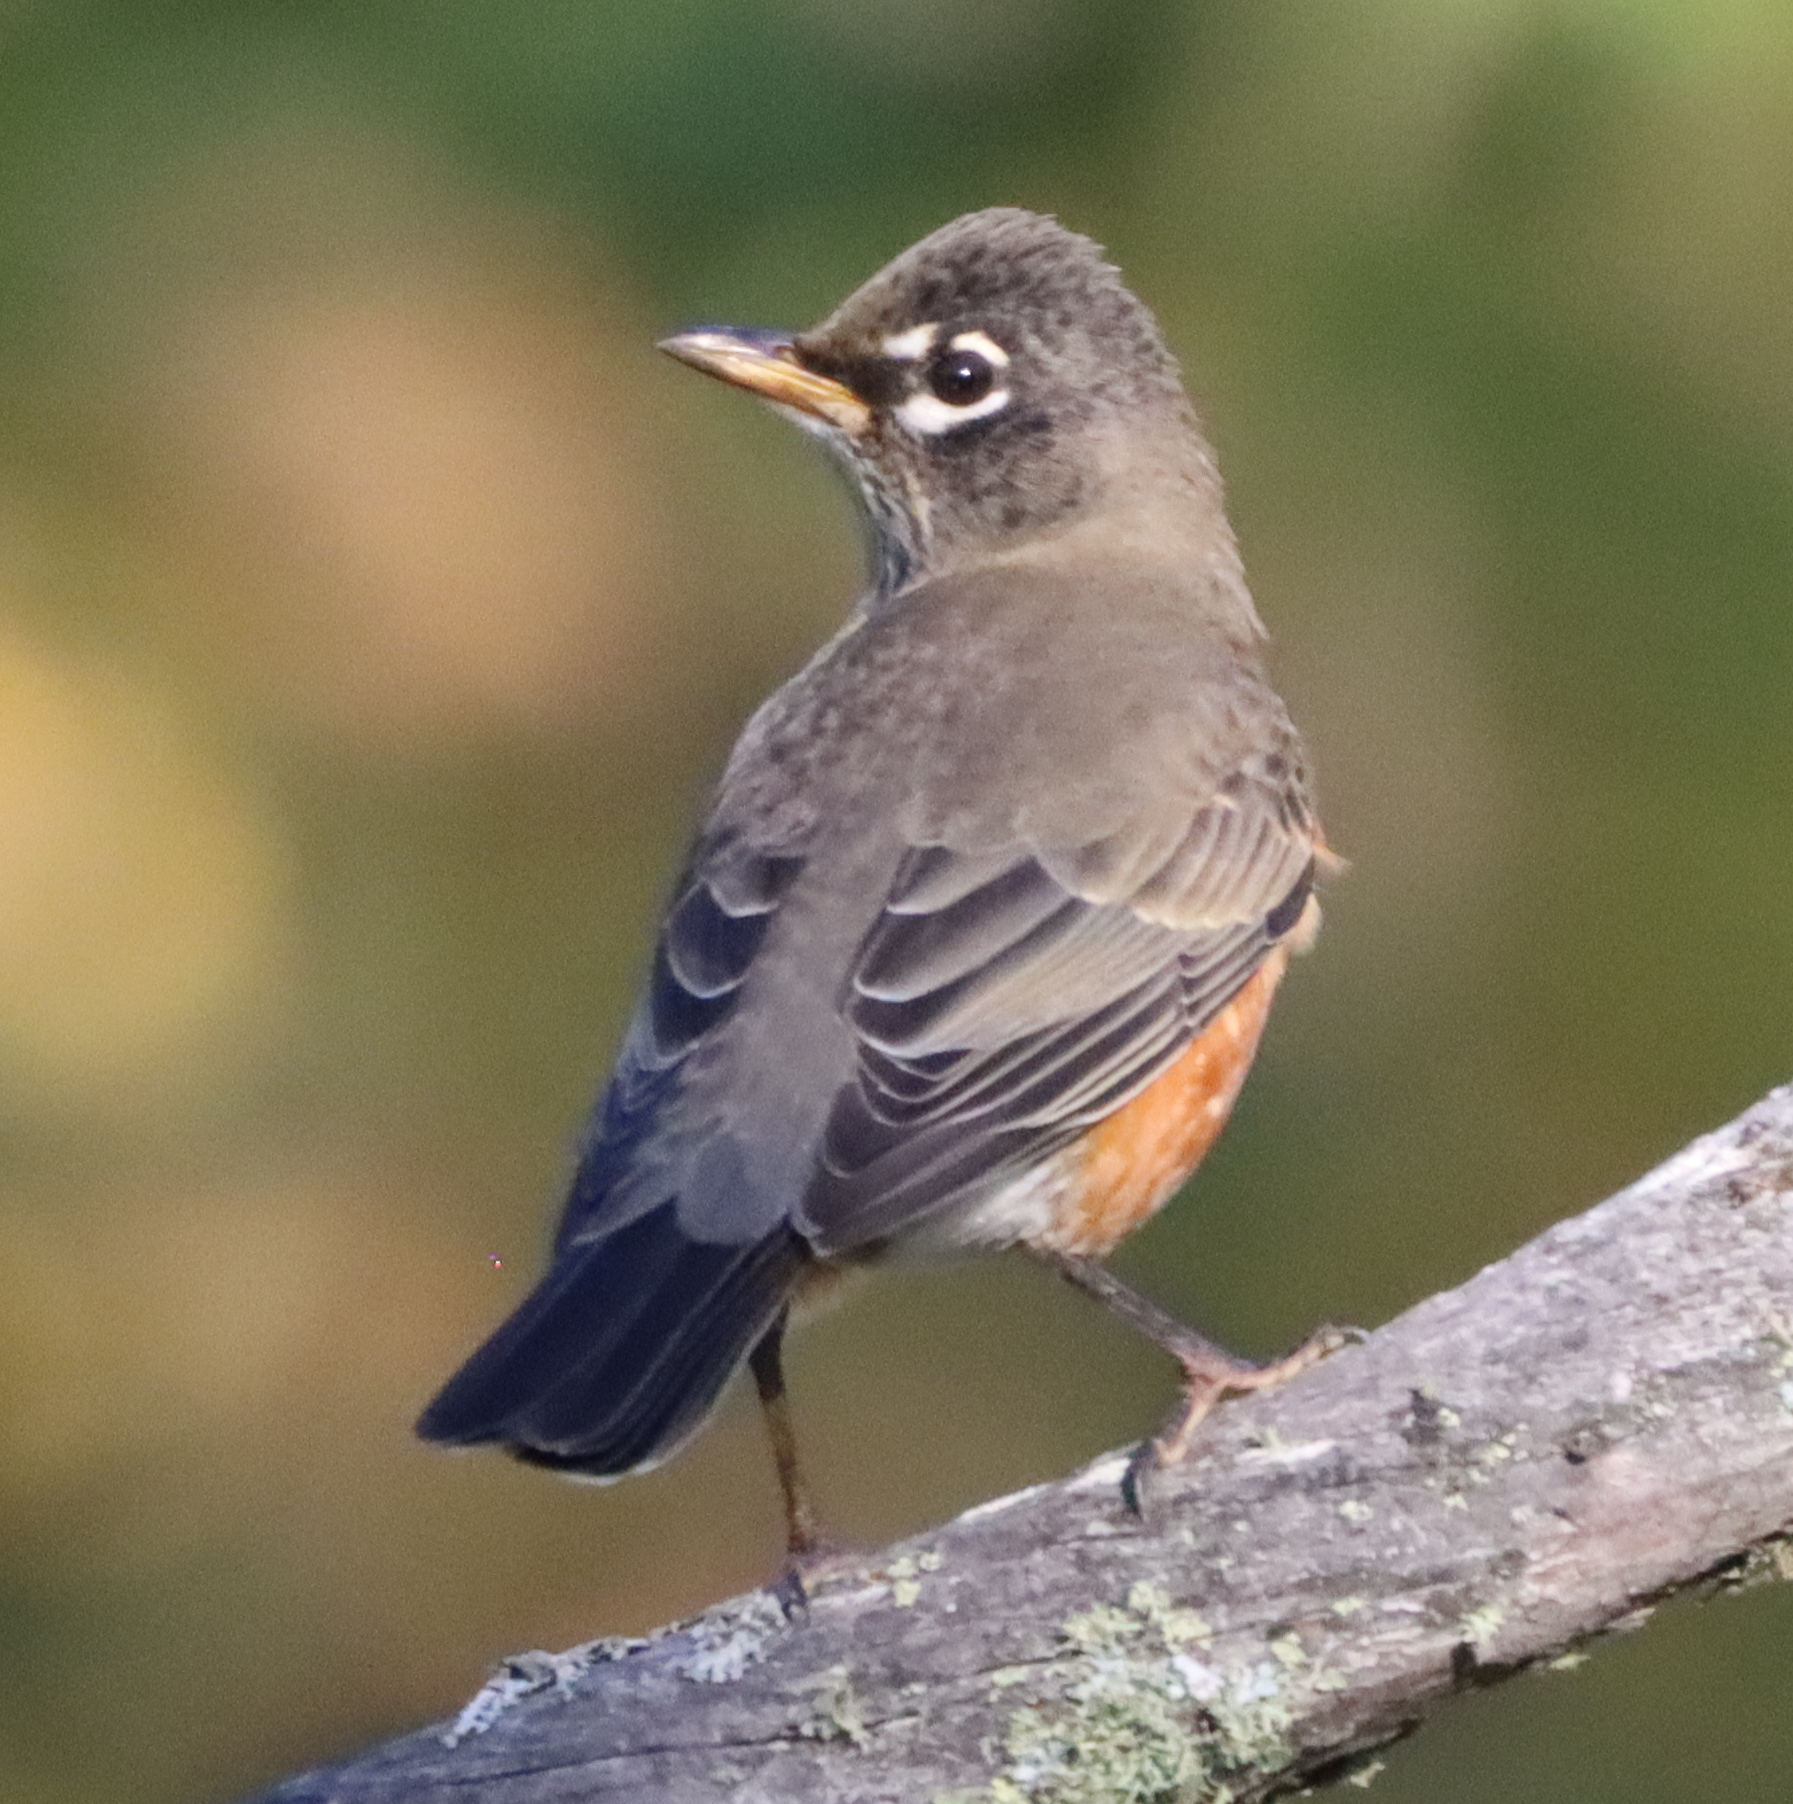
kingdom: Animalia
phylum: Chordata
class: Aves
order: Passeriformes
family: Turdidae
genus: Turdus
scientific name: Turdus migratorius
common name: American robin
